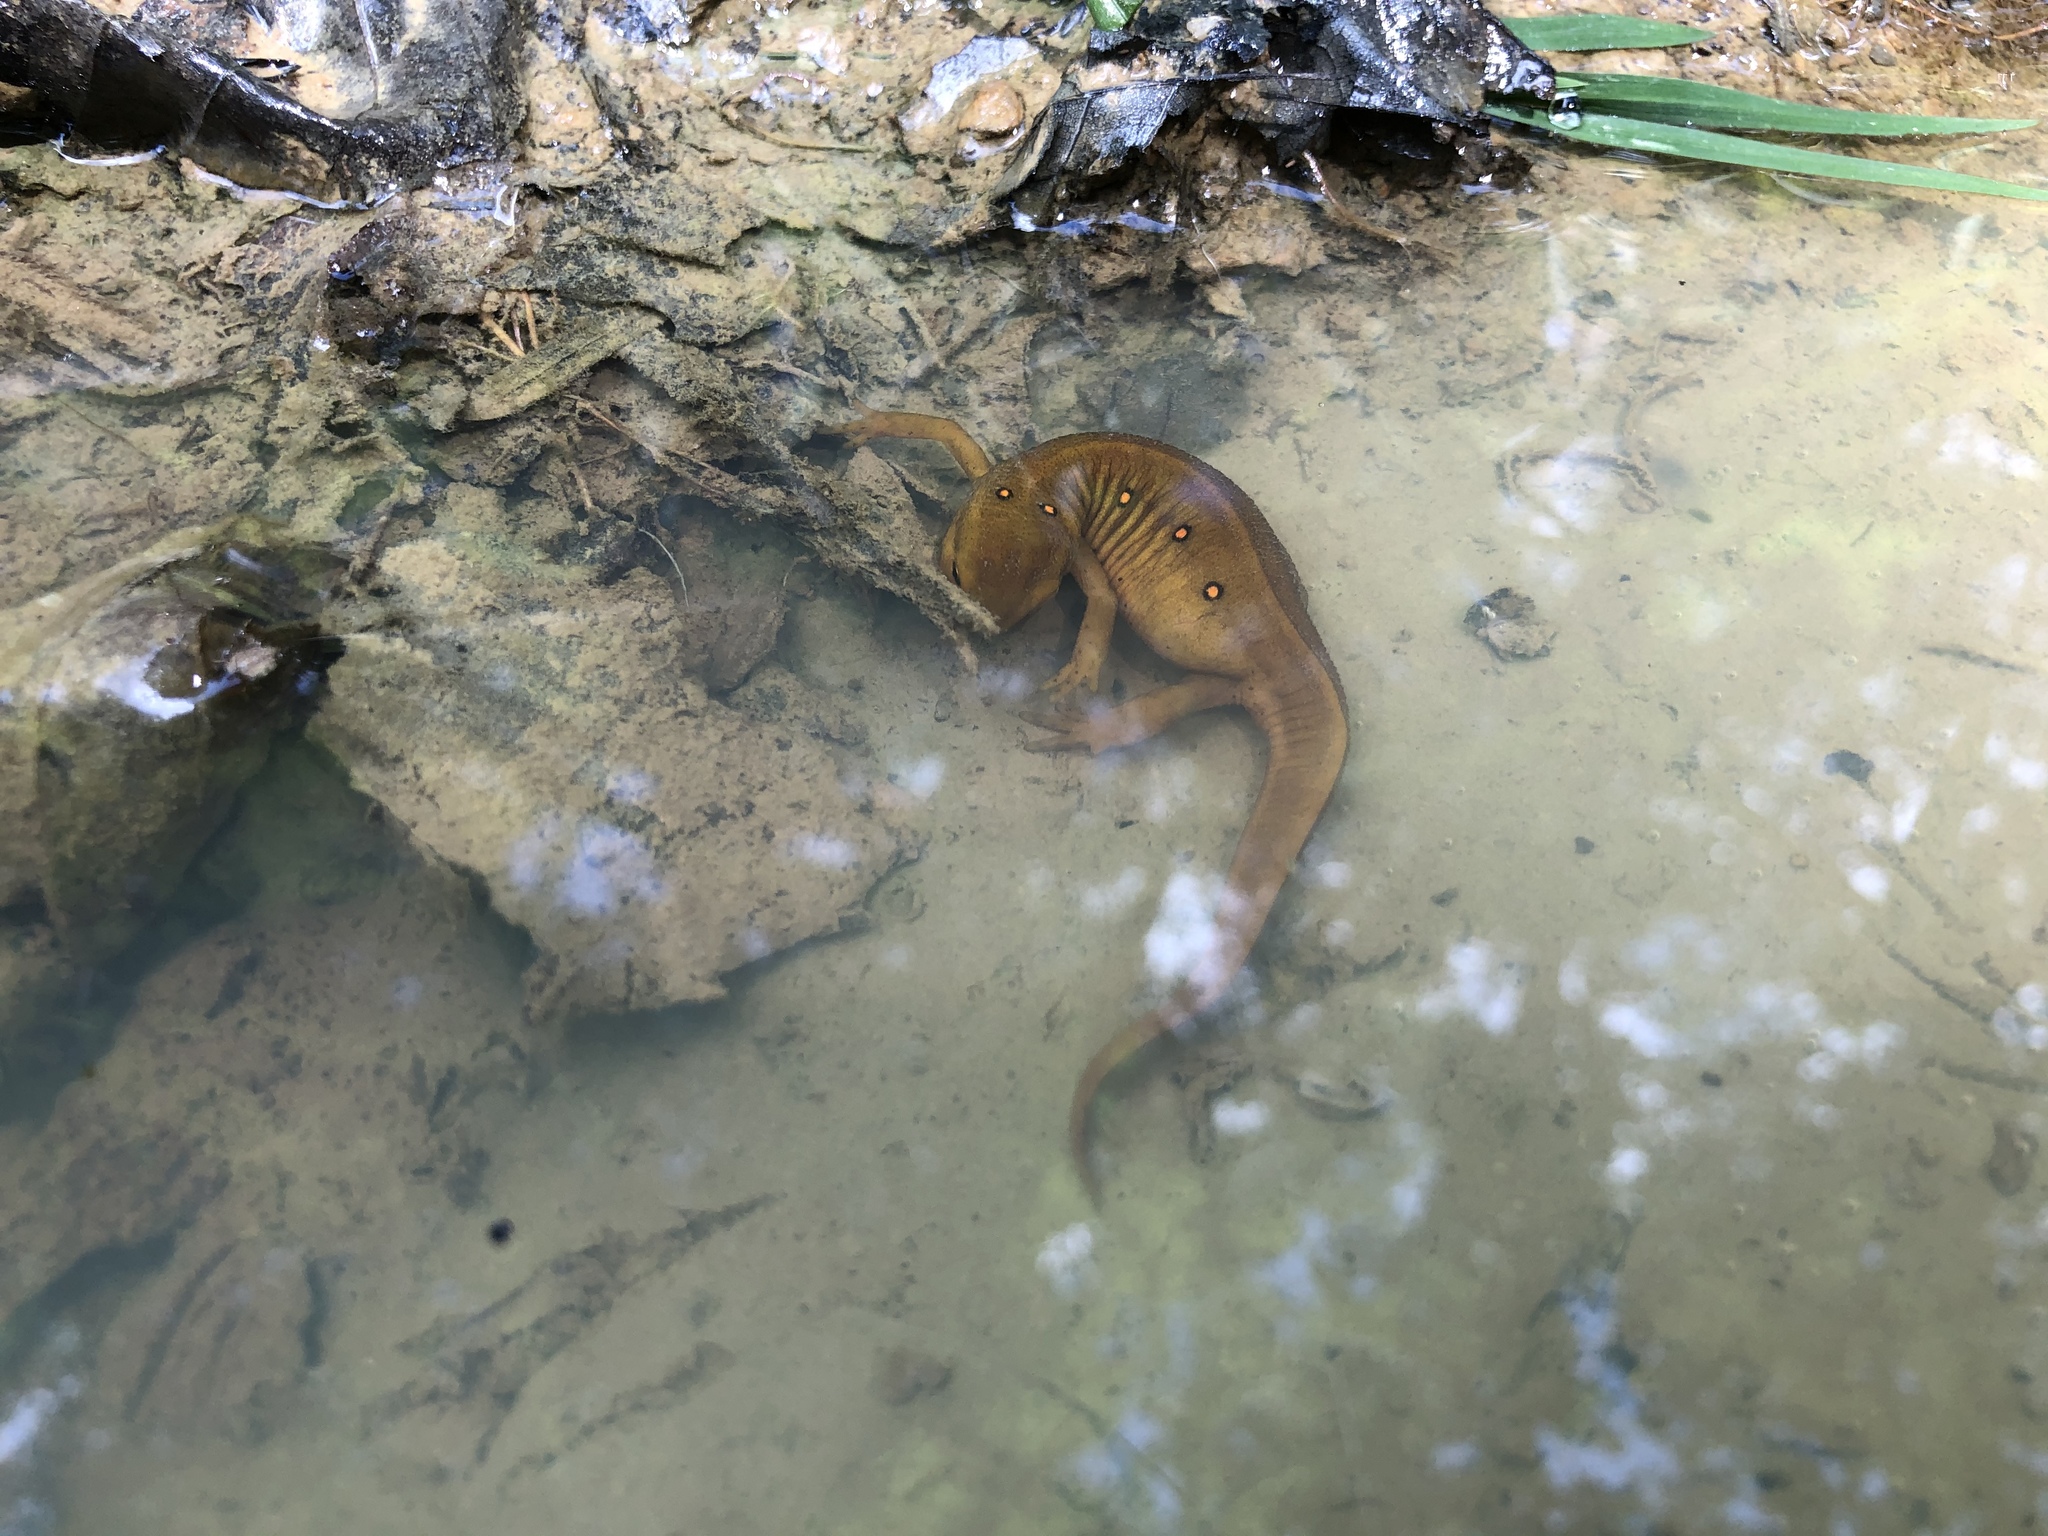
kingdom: Animalia
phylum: Chordata
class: Amphibia
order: Caudata
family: Salamandridae
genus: Notophthalmus
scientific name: Notophthalmus viridescens
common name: Eastern newt
